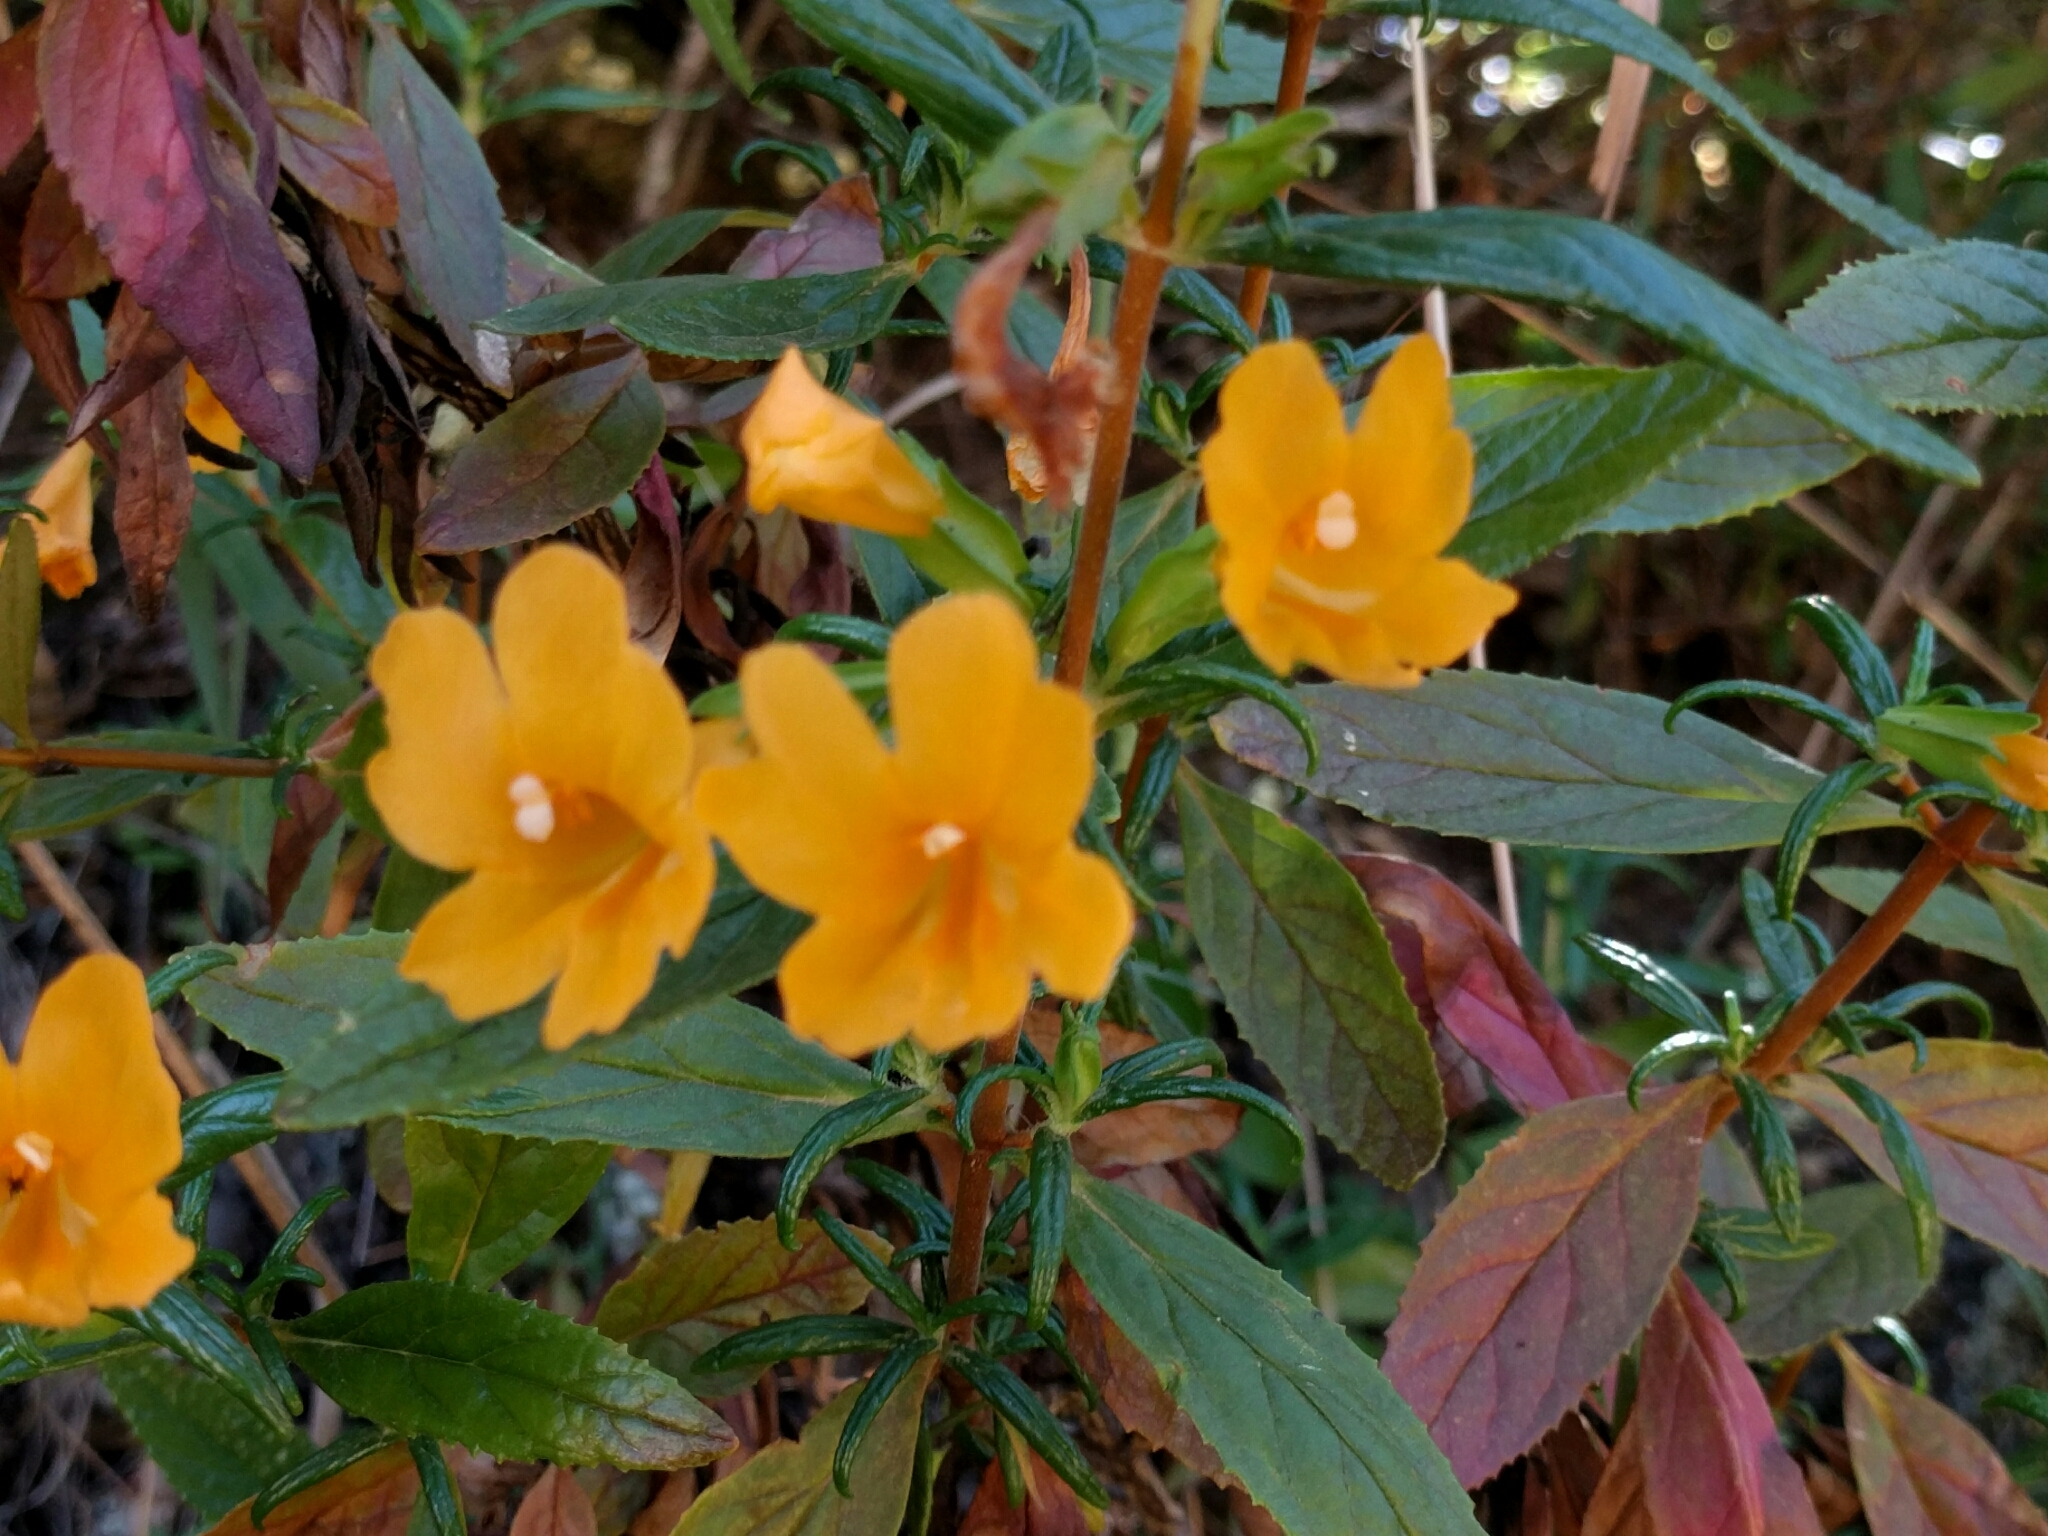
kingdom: Plantae
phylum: Tracheophyta
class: Magnoliopsida
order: Lamiales
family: Phrymaceae
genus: Diplacus
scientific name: Diplacus aurantiacus
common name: Bush monkey-flower
